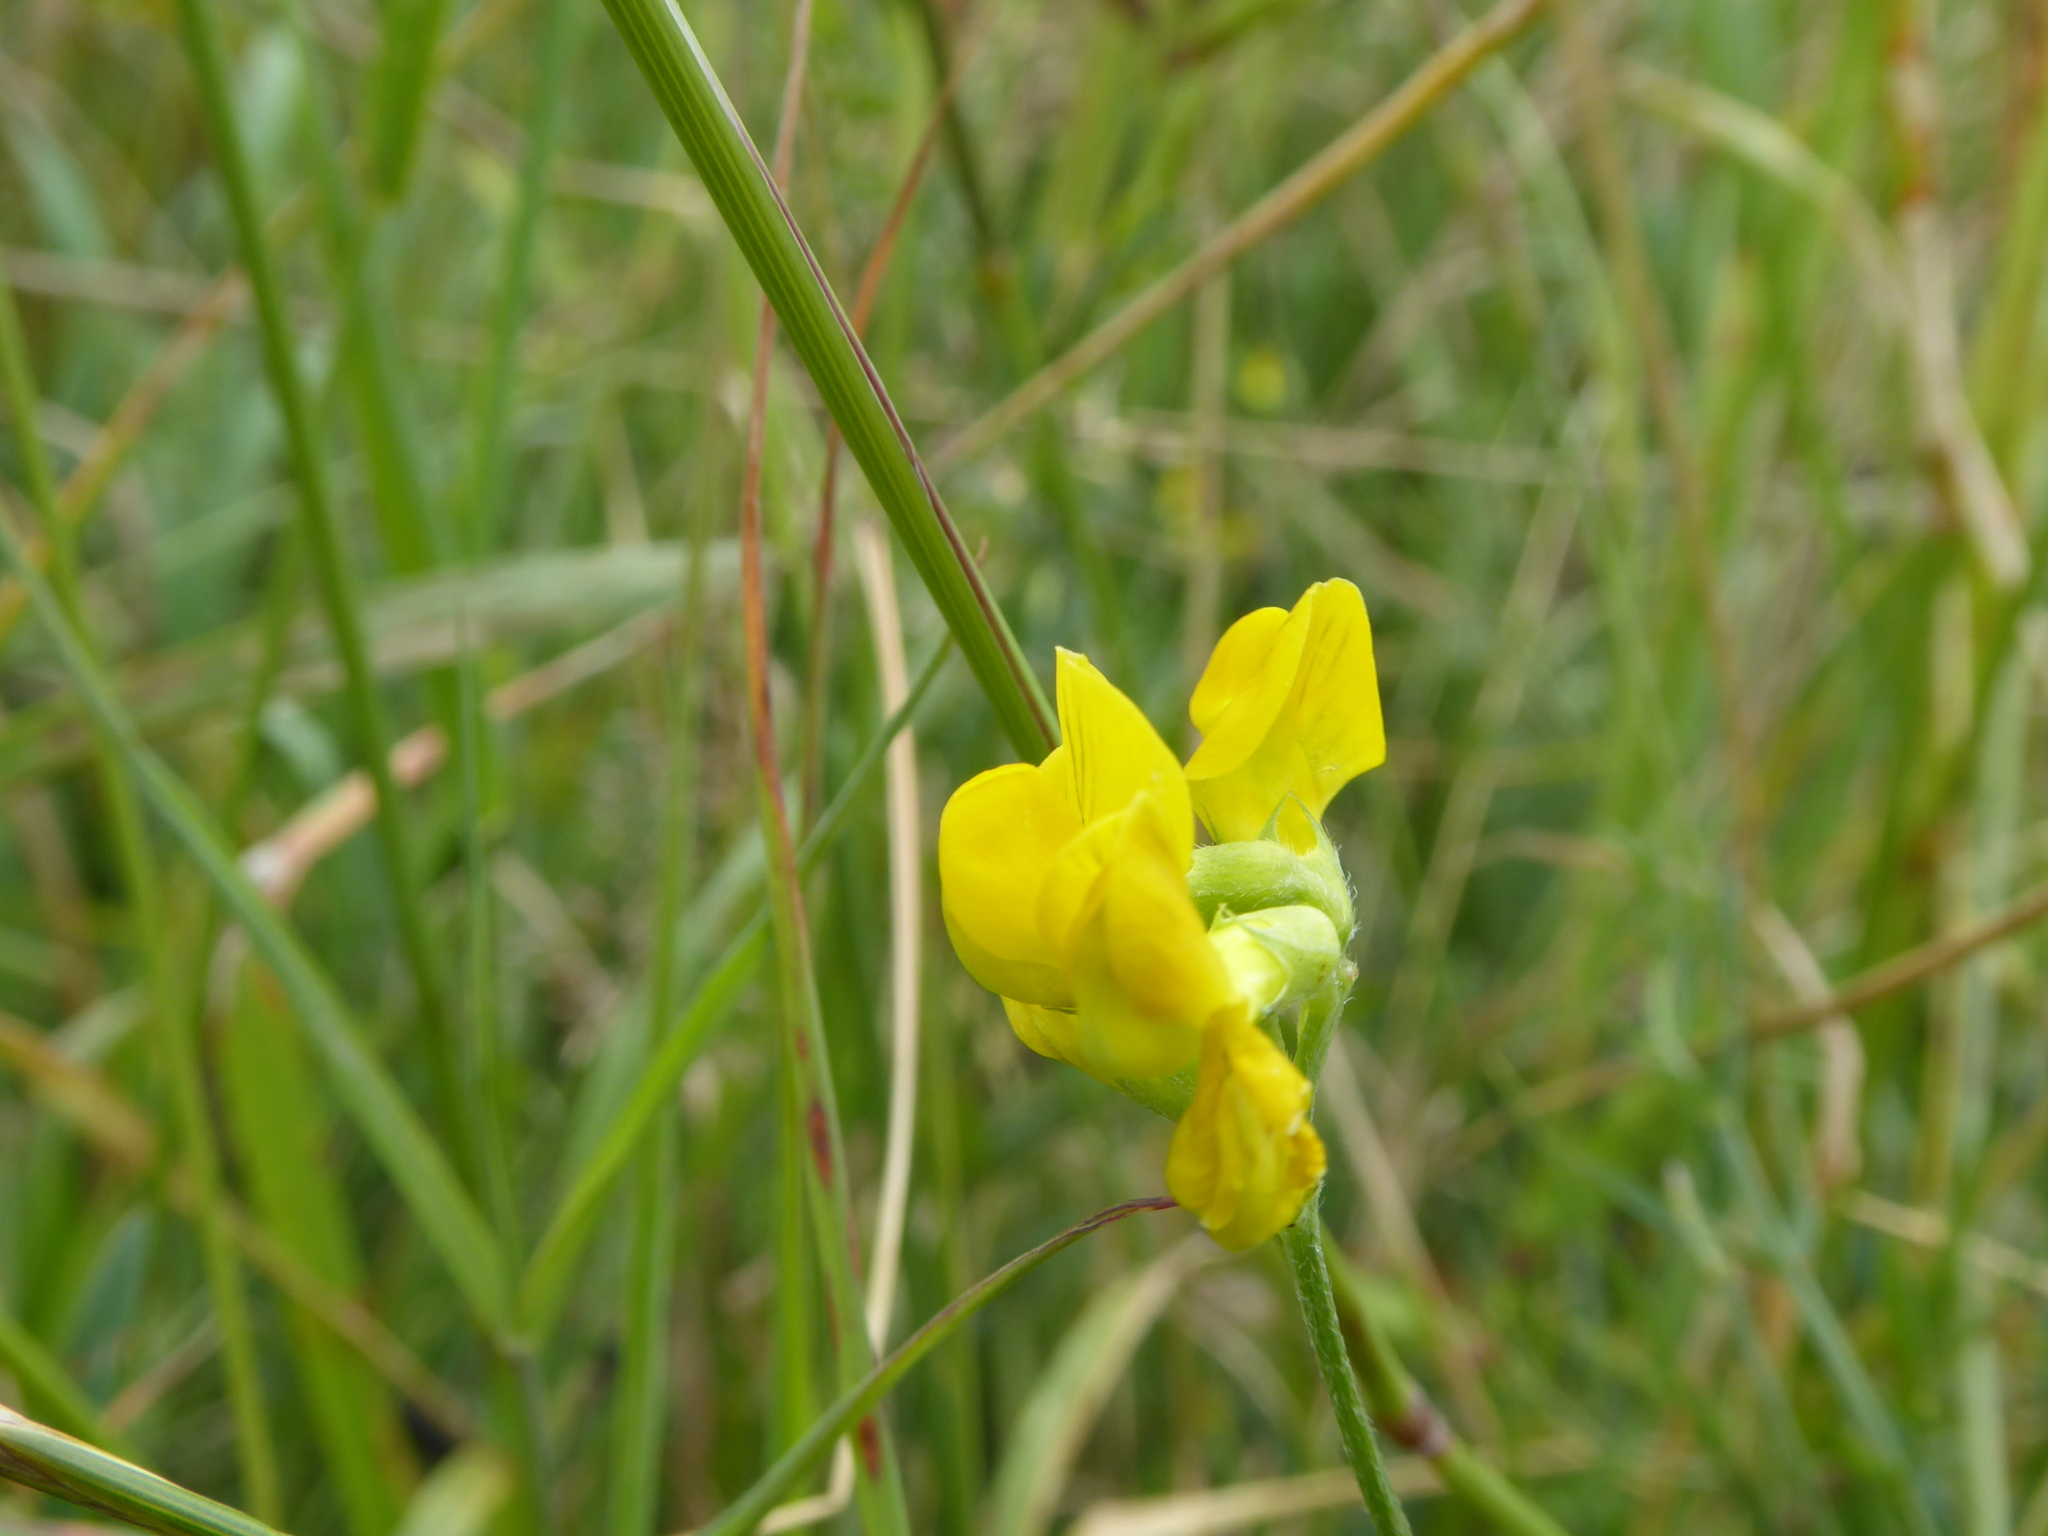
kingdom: Plantae
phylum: Tracheophyta
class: Magnoliopsida
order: Fabales
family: Fabaceae
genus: Lathyrus
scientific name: Lathyrus pratensis
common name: Meadow vetchling
